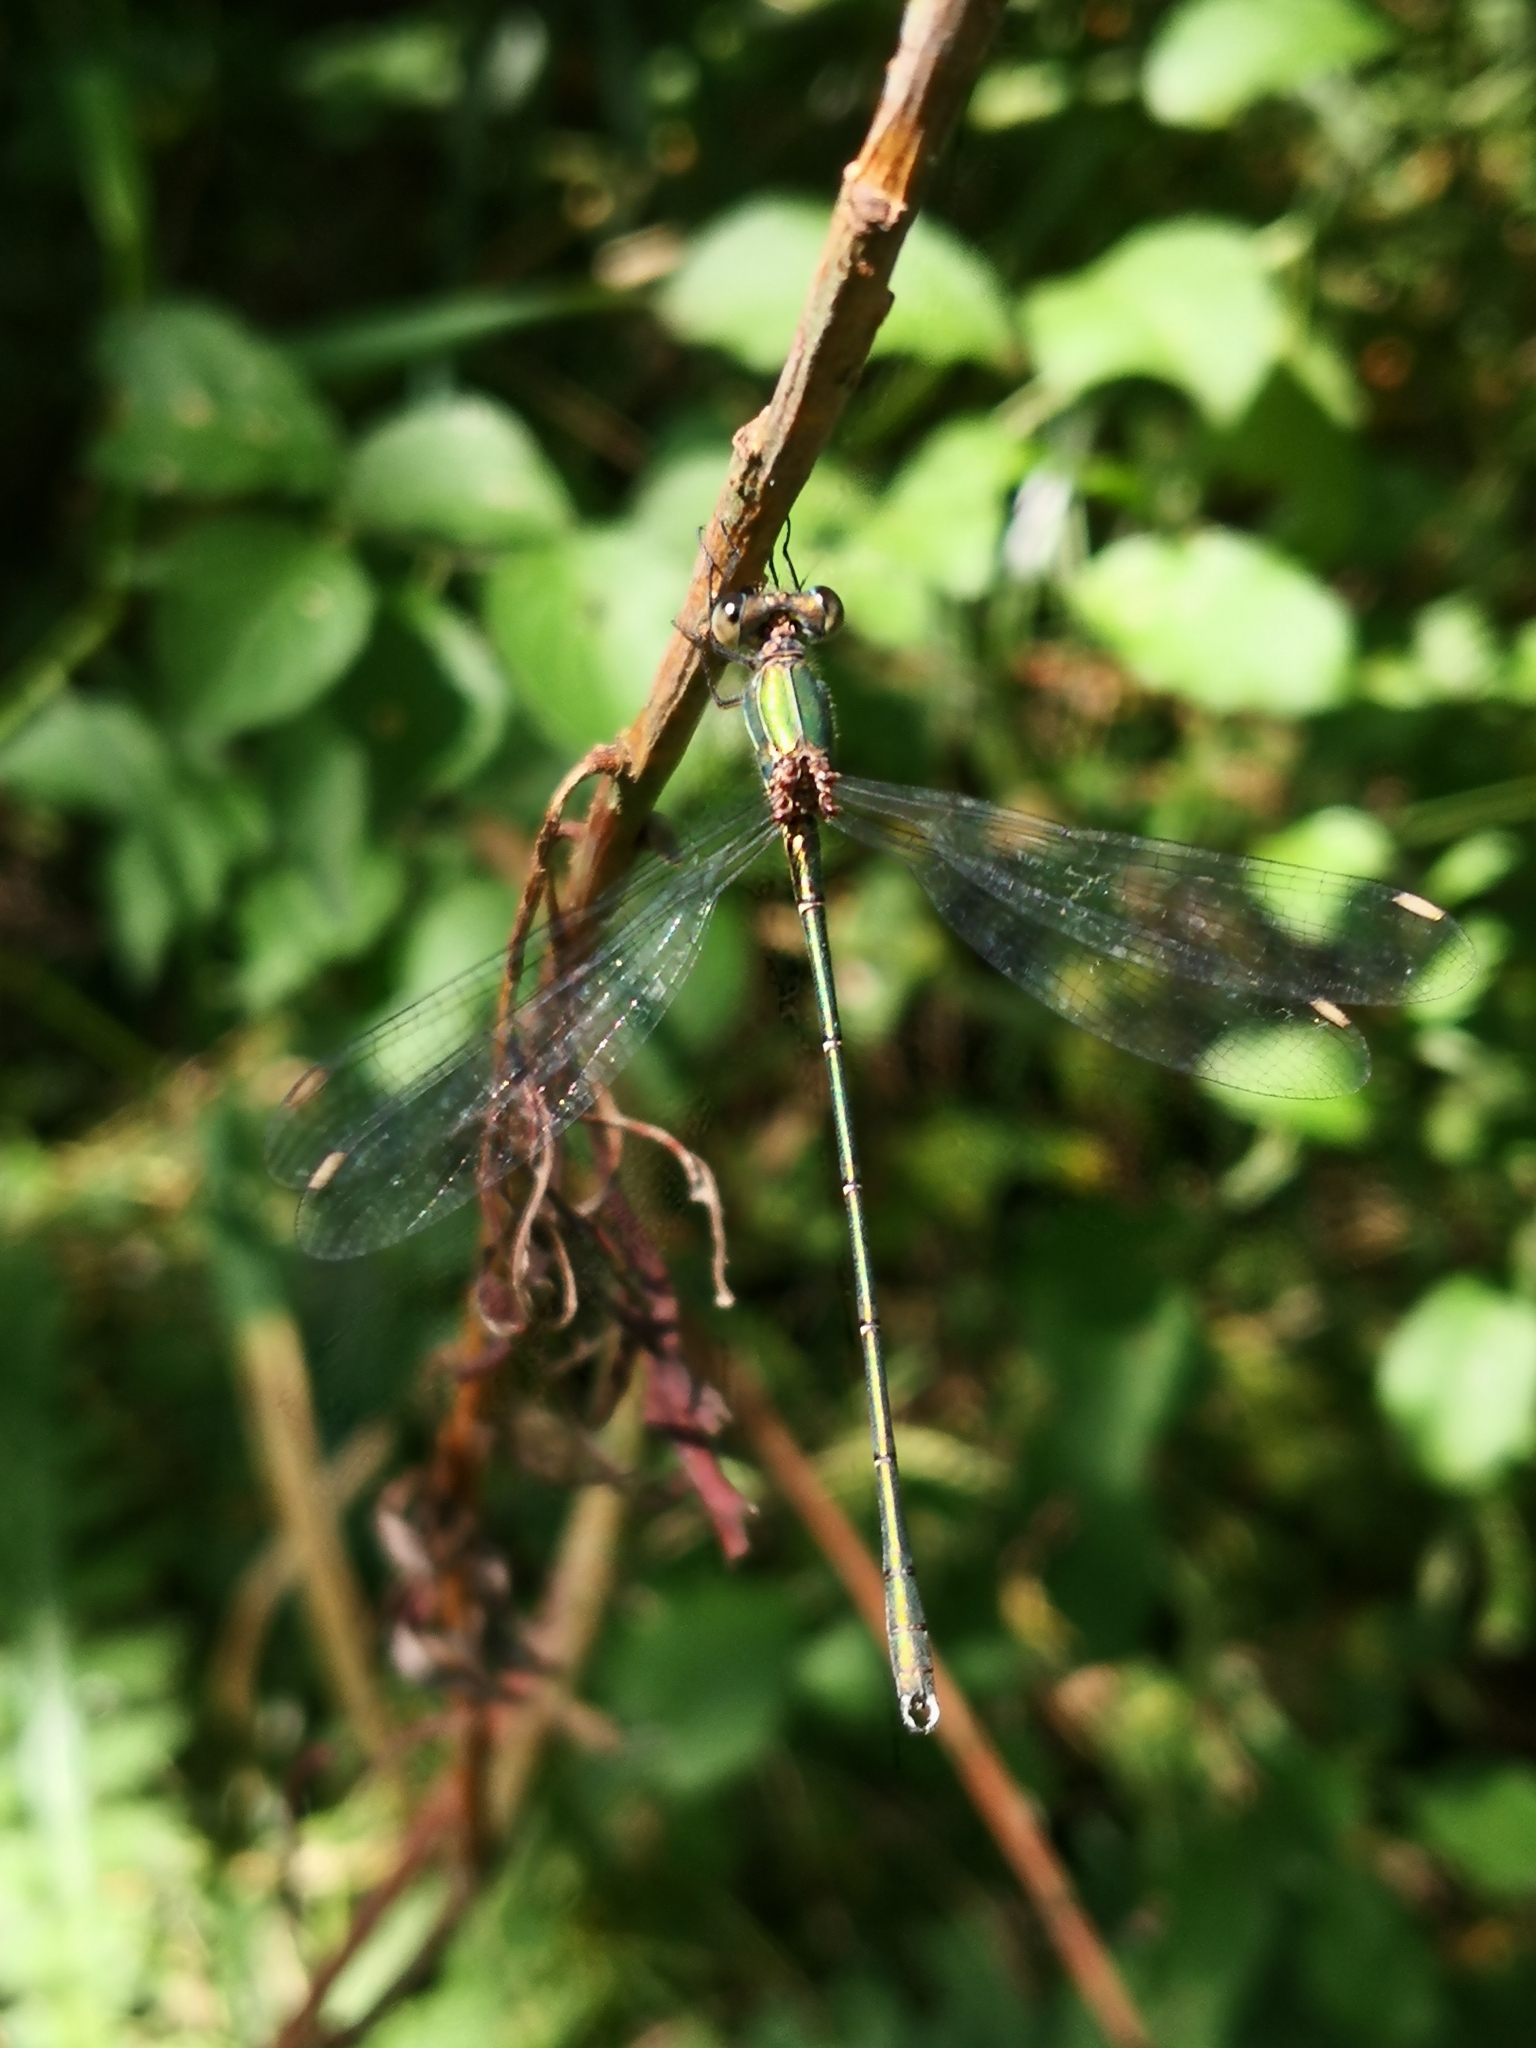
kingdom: Animalia
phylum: Arthropoda
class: Insecta
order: Odonata
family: Lestidae
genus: Chalcolestes
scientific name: Chalcolestes viridis
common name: Green emerald damselfly
